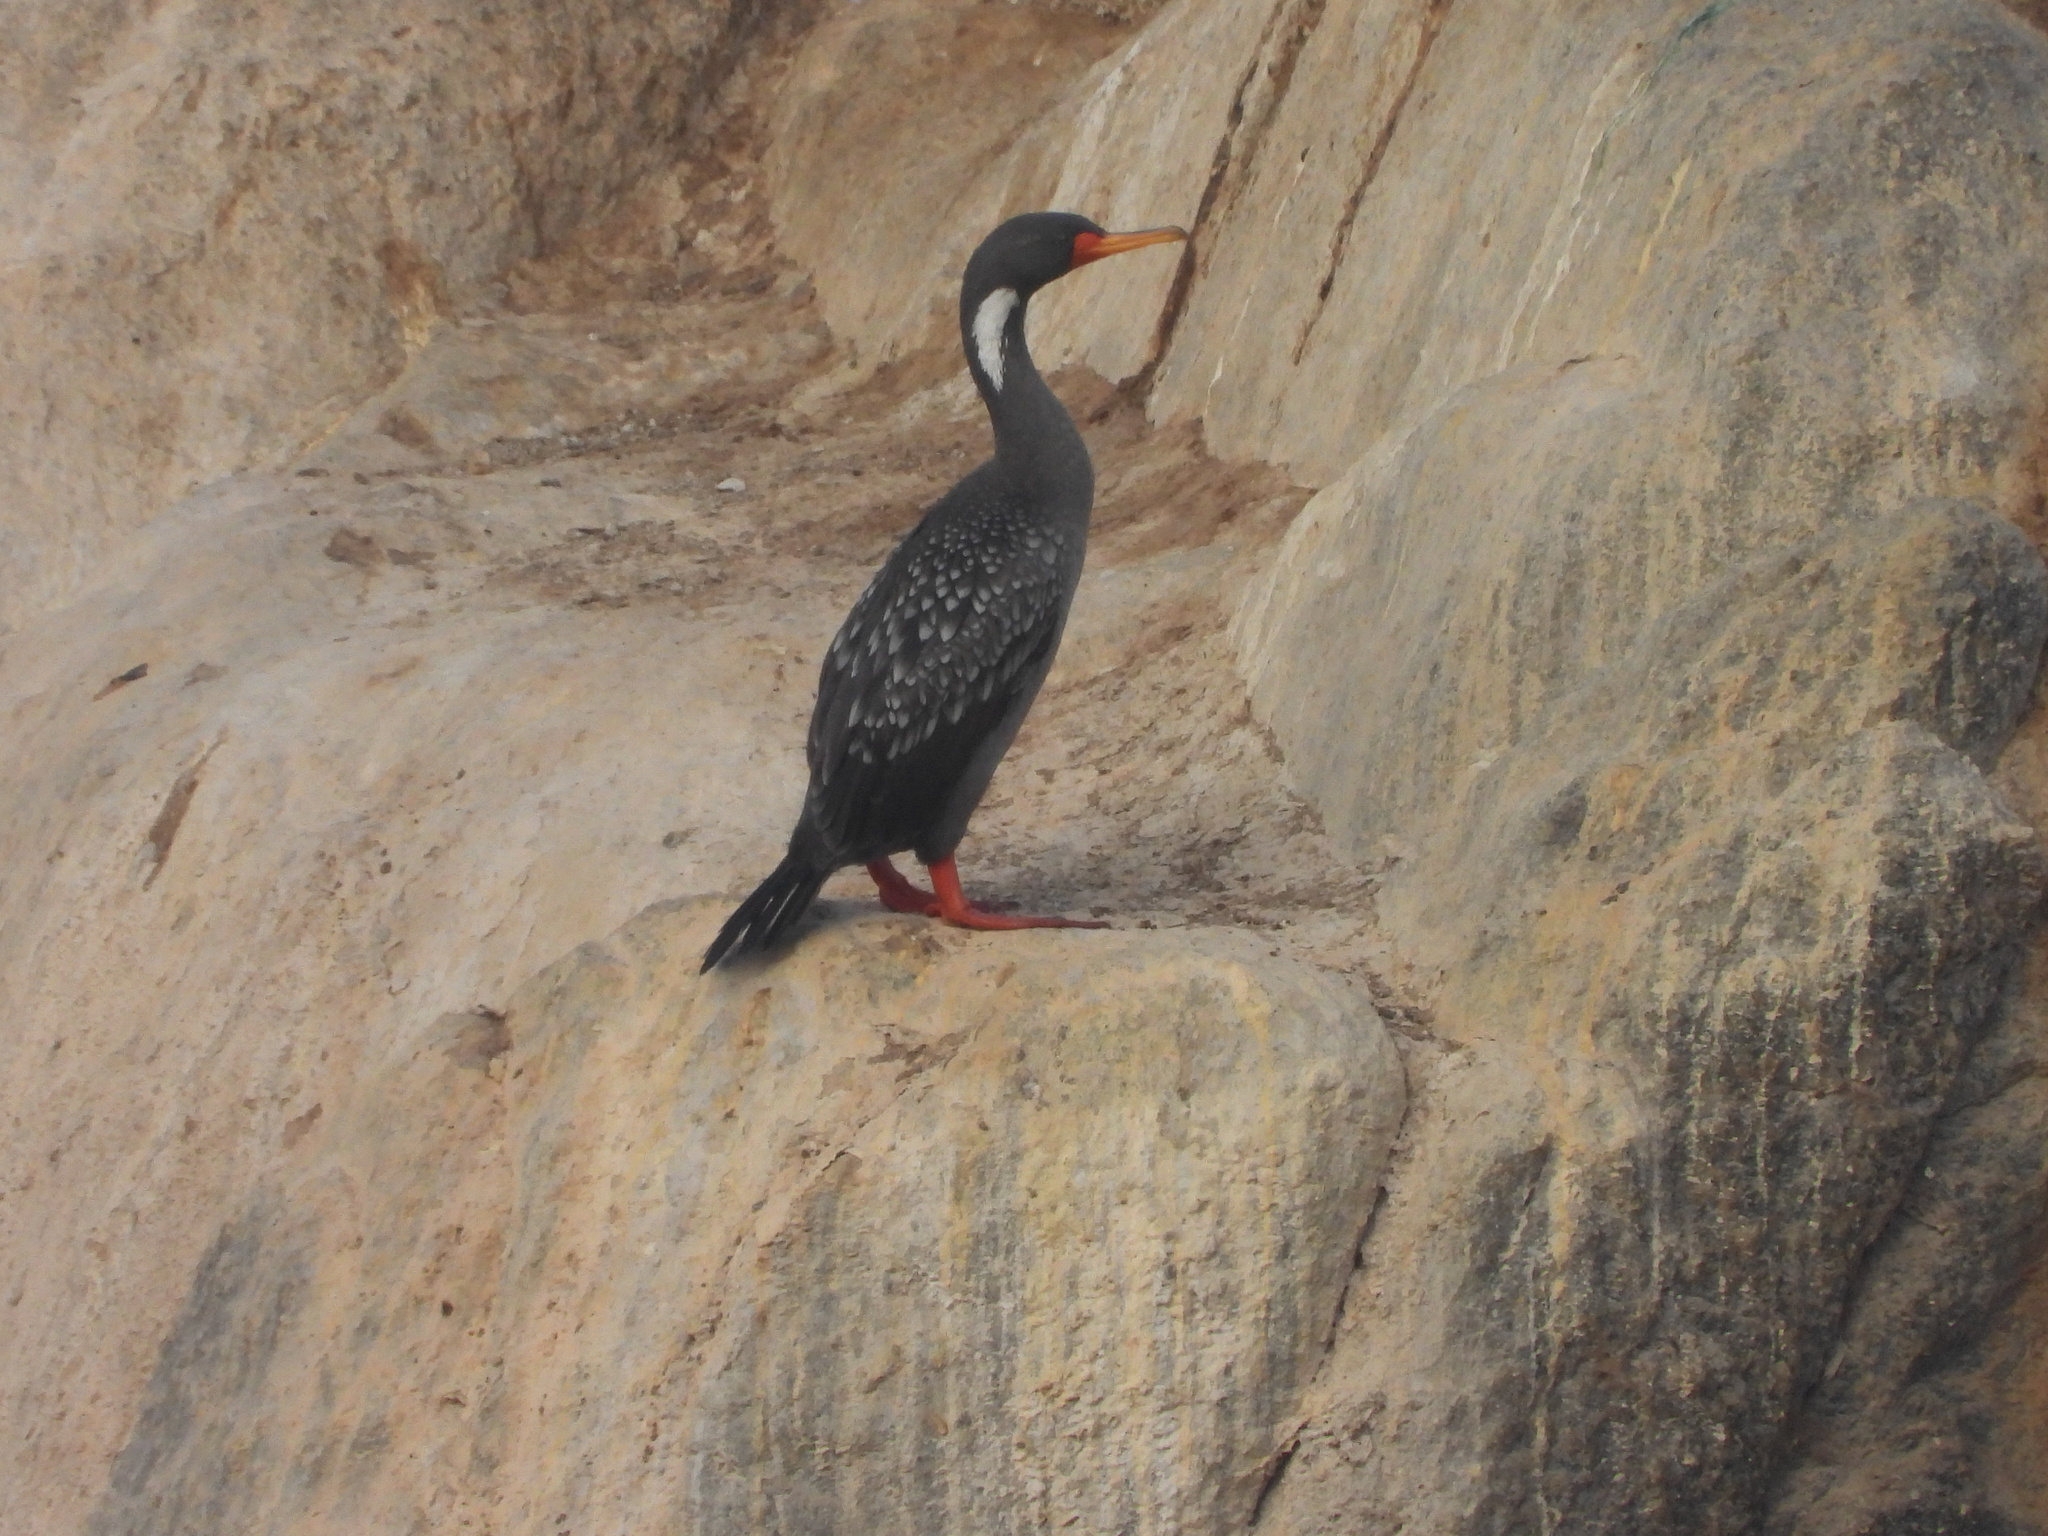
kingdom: Animalia
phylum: Chordata
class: Aves
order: Suliformes
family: Phalacrocoracidae
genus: Phalacrocorax
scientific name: Phalacrocorax gaimardi
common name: Red-legged cormorant
